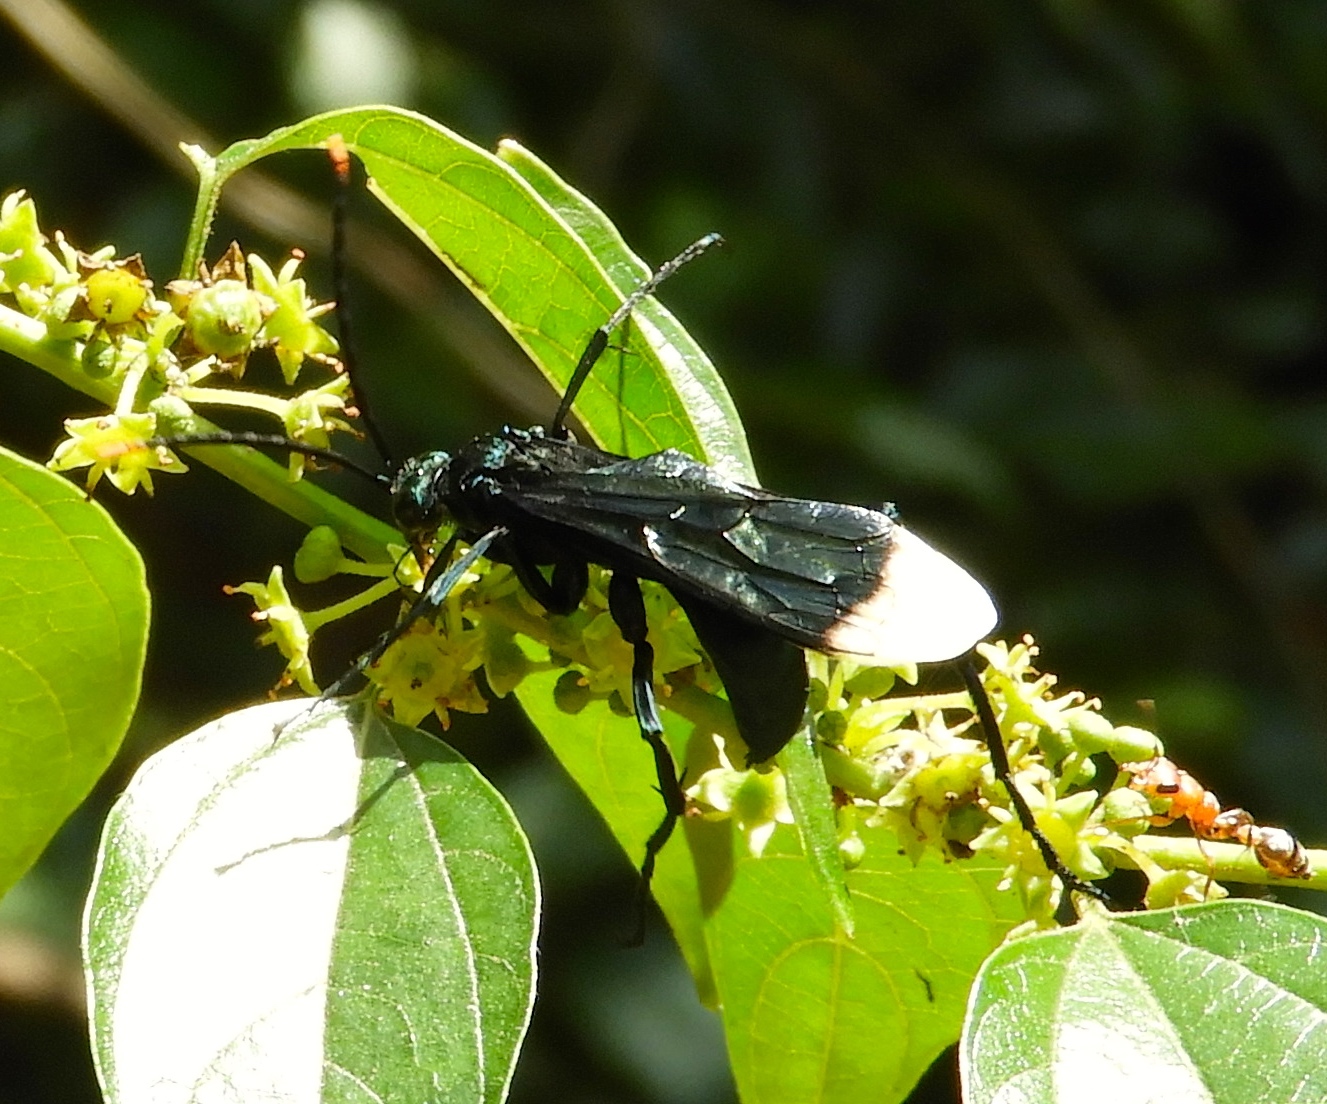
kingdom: Animalia
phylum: Arthropoda
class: Insecta
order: Hymenoptera
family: Pompilidae
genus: Pepsis
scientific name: Pepsis
